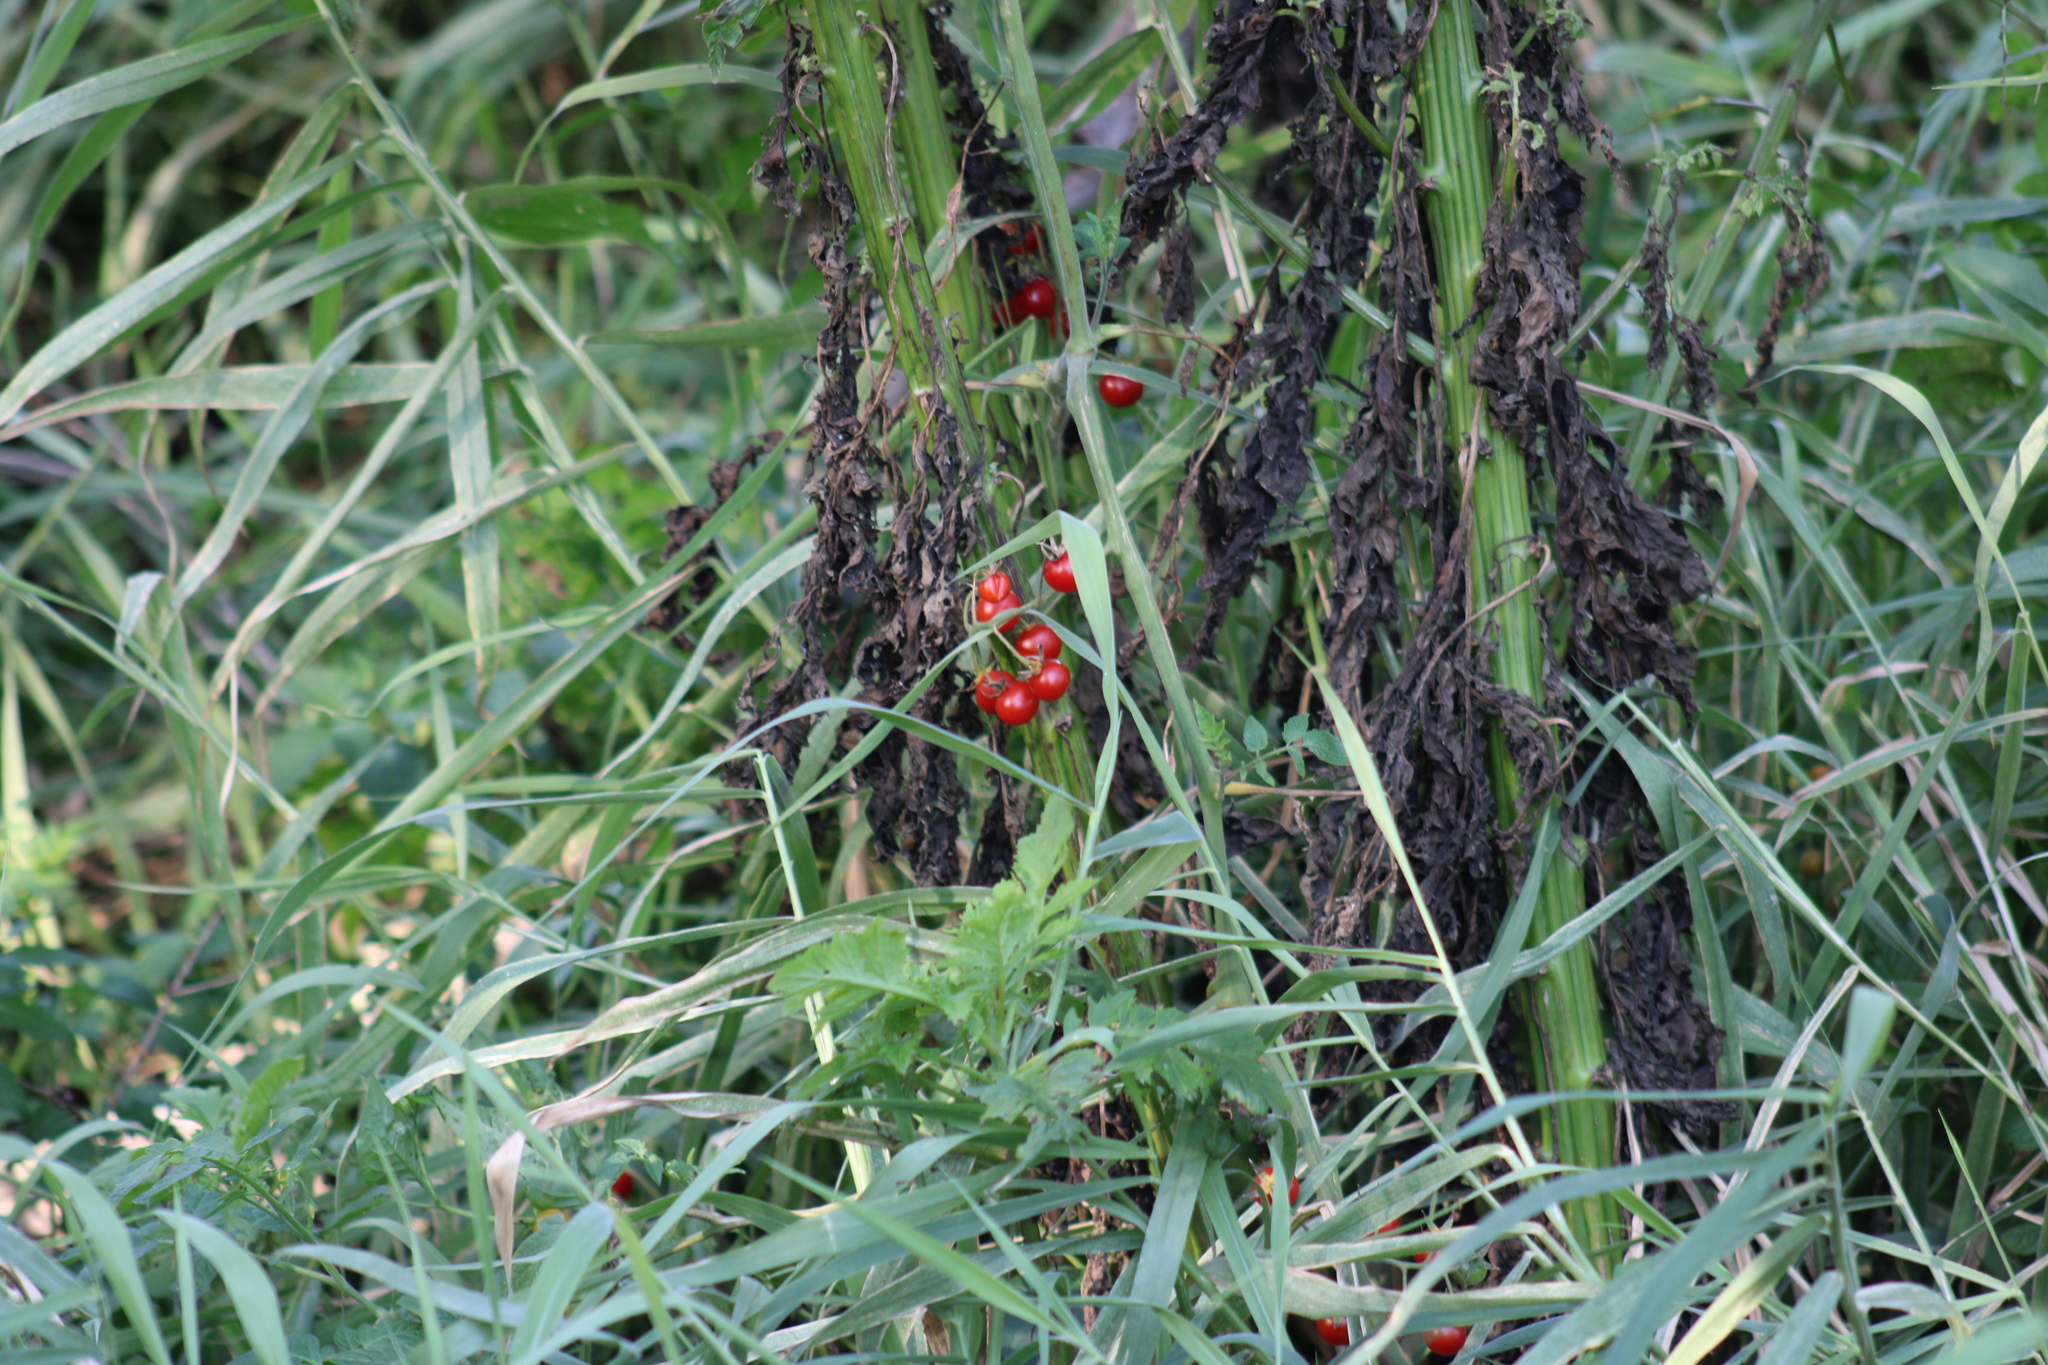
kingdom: Plantae
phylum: Tracheophyta
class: Magnoliopsida
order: Solanales
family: Solanaceae
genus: Solanum
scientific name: Solanum lycopersicum
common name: Garden tomato
